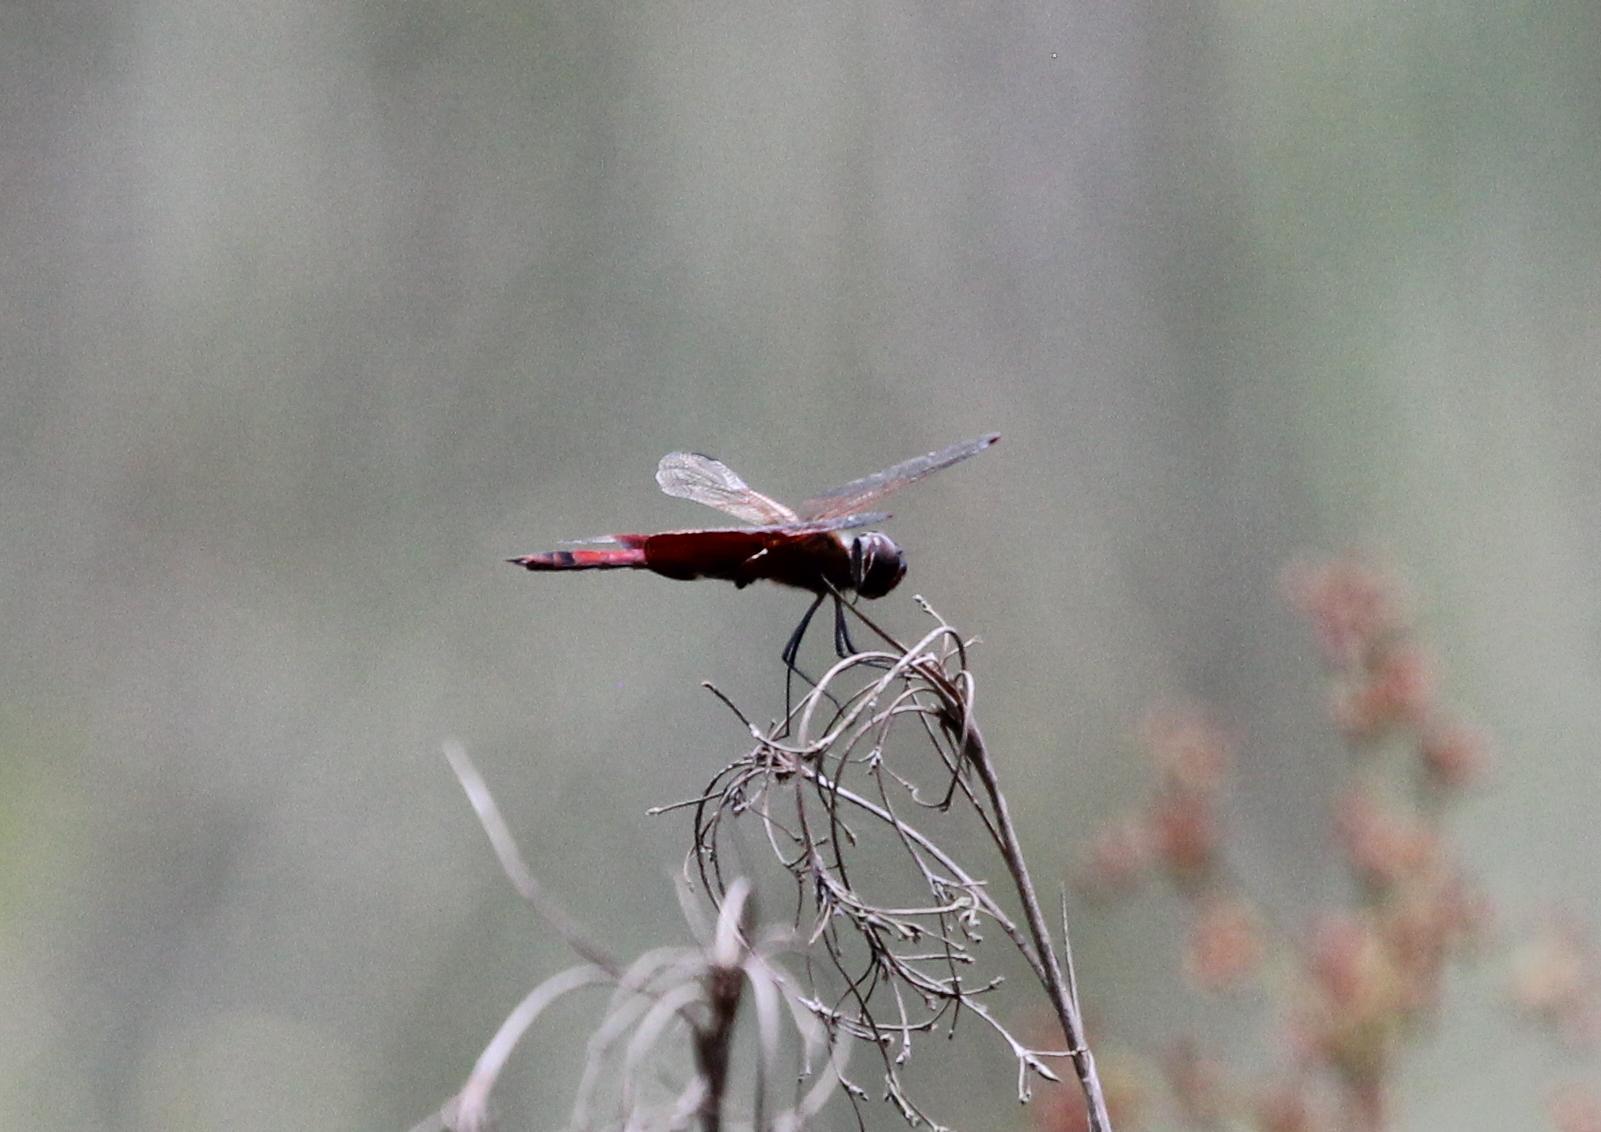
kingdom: Animalia
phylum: Arthropoda
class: Insecta
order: Odonata
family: Libellulidae
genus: Tramea
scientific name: Tramea carolina
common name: Carolina saddlebags
